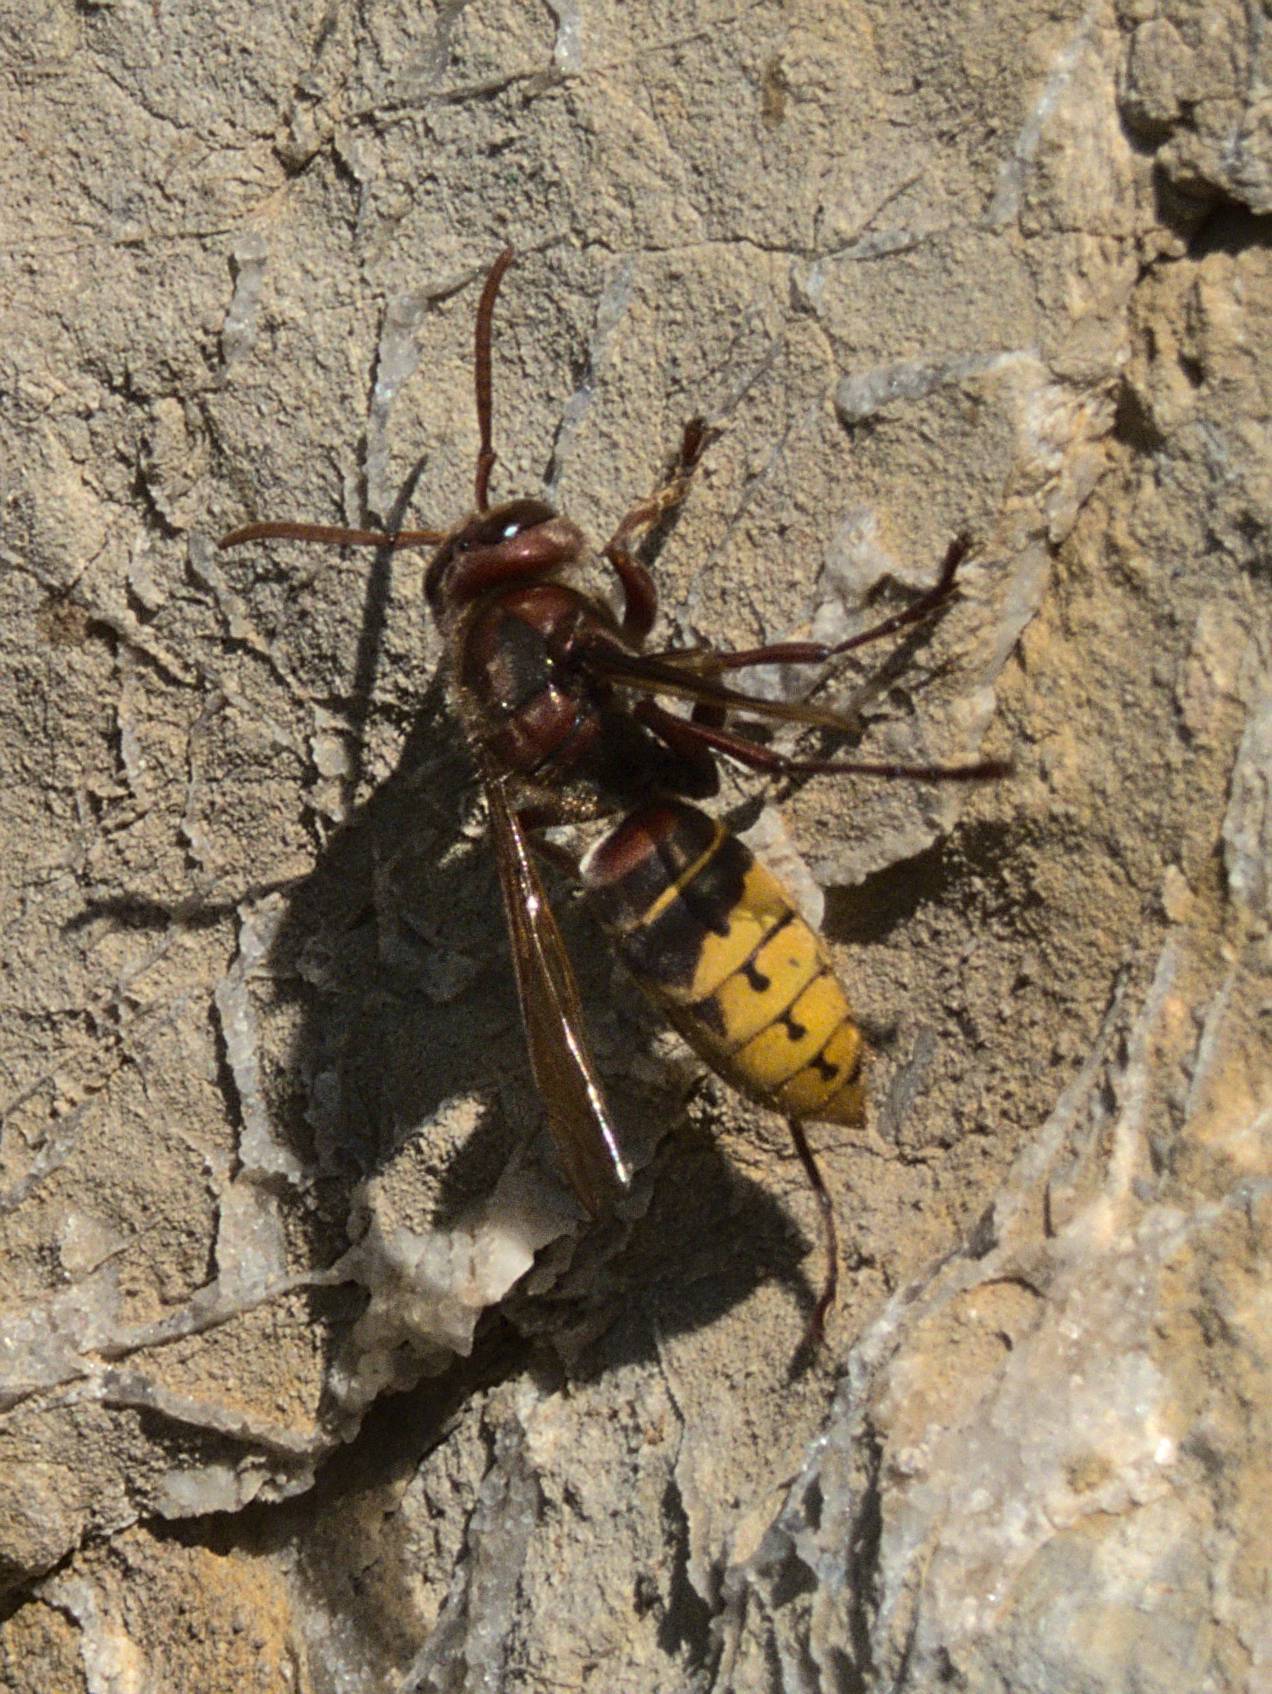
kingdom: Animalia
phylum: Arthropoda
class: Insecta
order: Hymenoptera
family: Vespidae
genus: Vespa
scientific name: Vespa crabro
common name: Hornet
